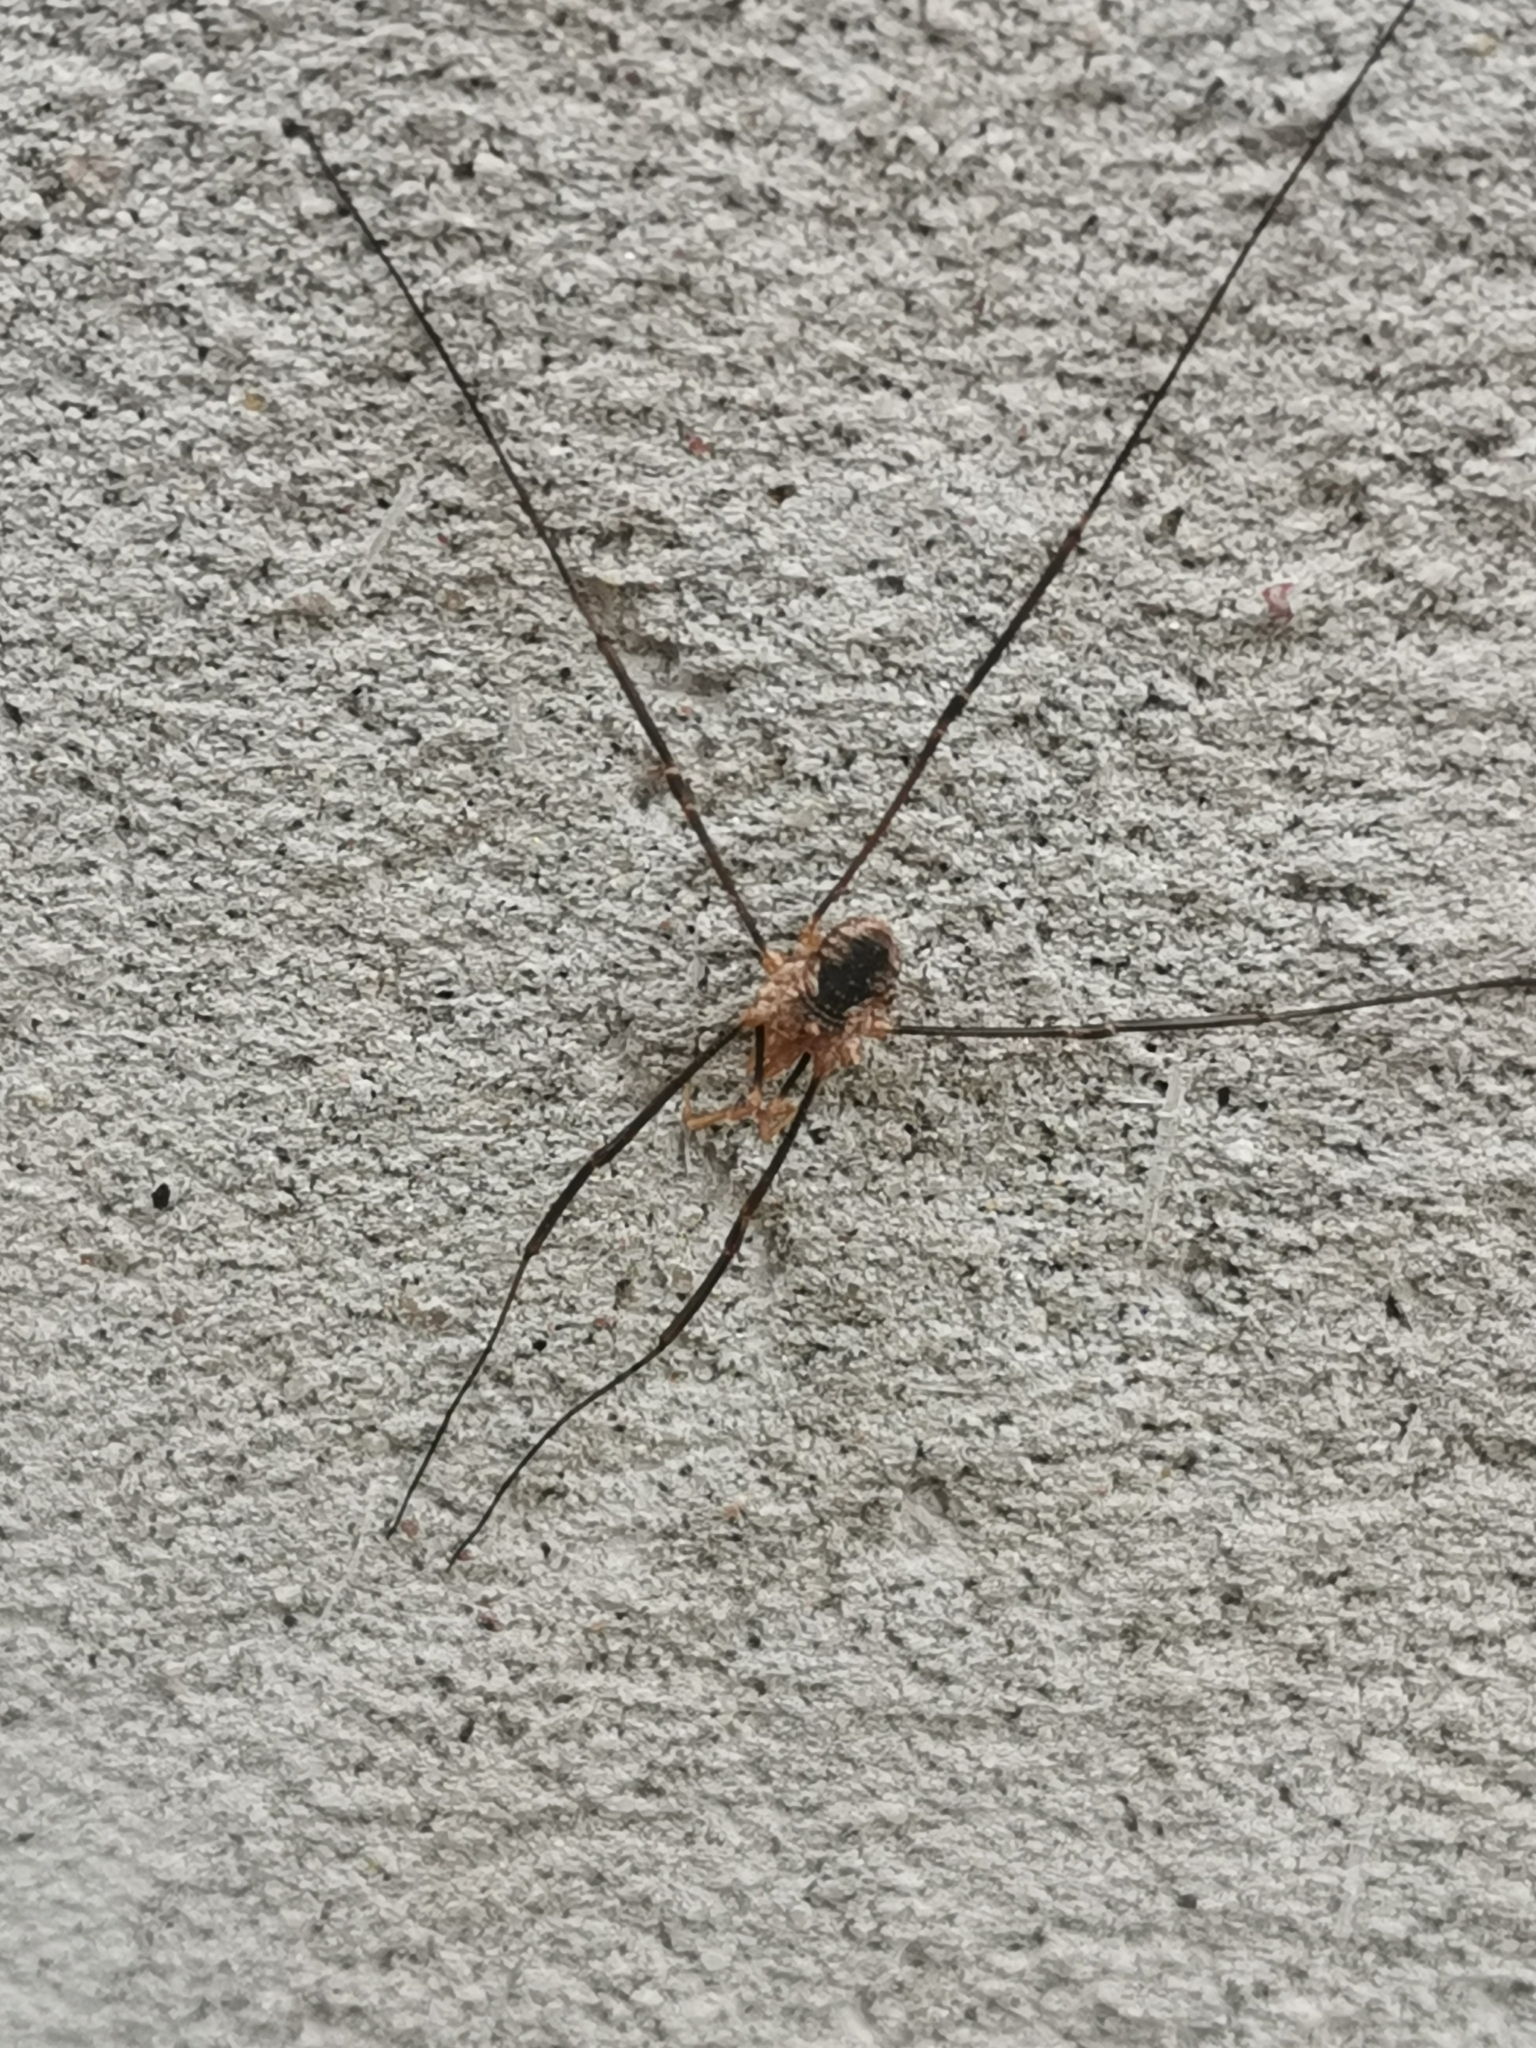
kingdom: Animalia
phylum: Arthropoda
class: Arachnida
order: Opiliones
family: Phalangiidae
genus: Phalangium
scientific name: Phalangium opilio
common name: Daddy longleg
